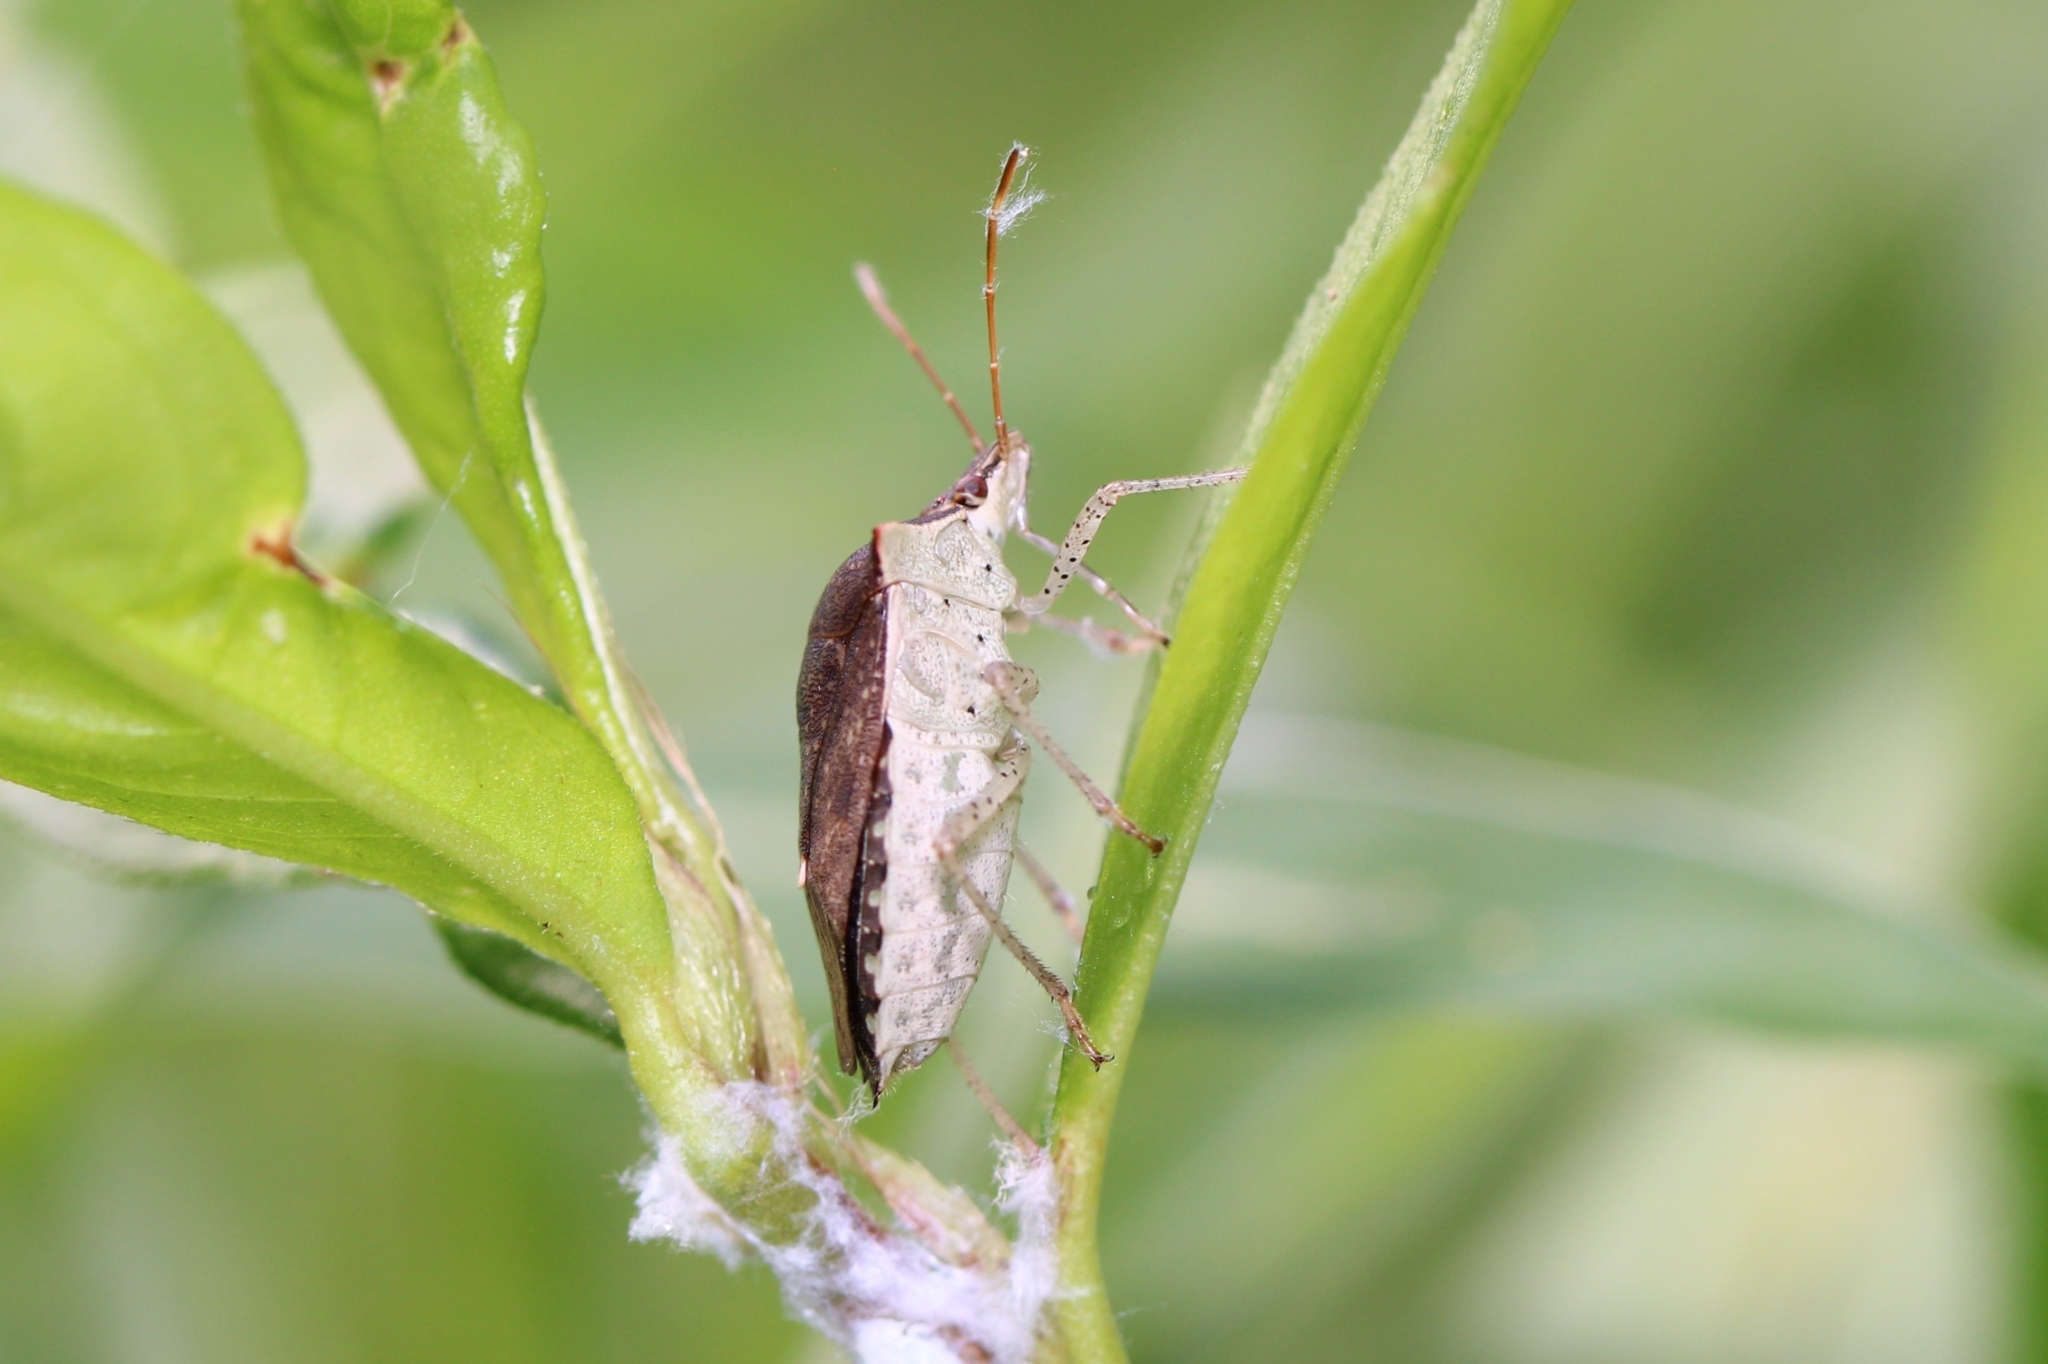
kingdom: Animalia
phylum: Arthropoda
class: Insecta
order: Hemiptera
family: Pentatomidae
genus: Euschistus
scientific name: Euschistus servus
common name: Brown stink bug
